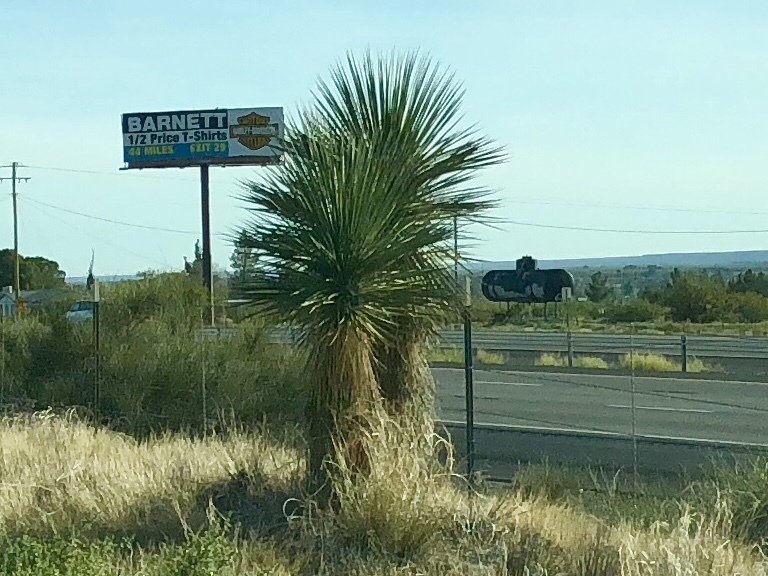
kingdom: Plantae
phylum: Tracheophyta
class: Liliopsida
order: Asparagales
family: Asparagaceae
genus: Yucca
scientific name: Yucca elata
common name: Palmella
